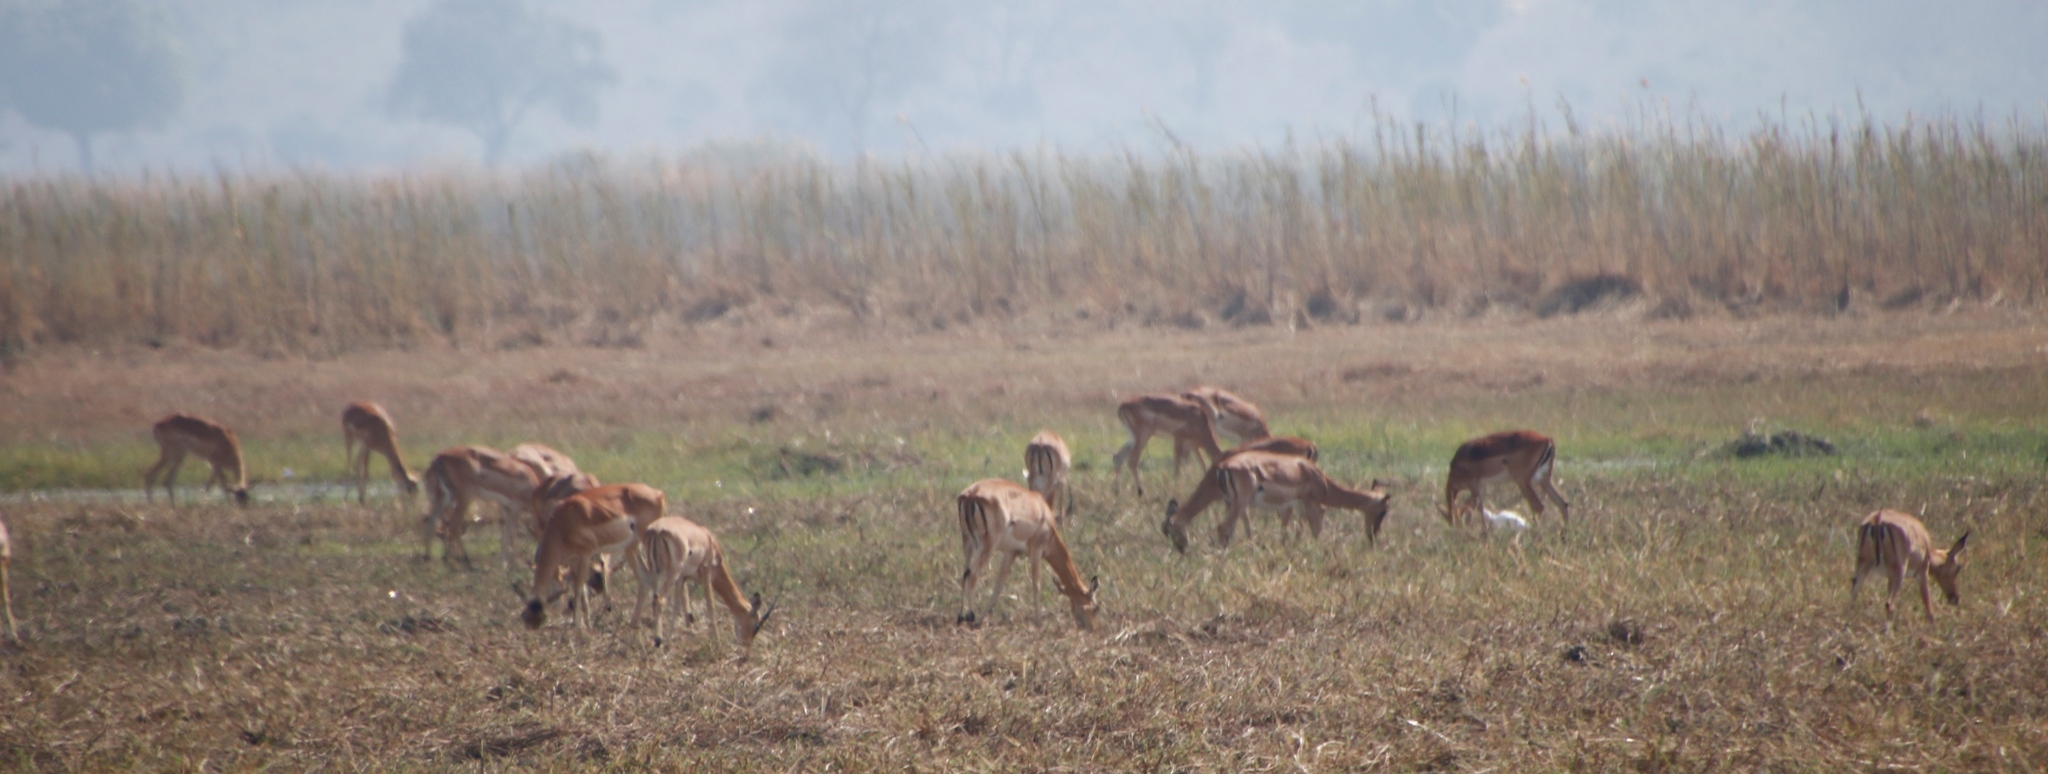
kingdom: Animalia
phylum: Chordata
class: Mammalia
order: Artiodactyla
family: Bovidae
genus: Aepyceros
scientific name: Aepyceros melampus
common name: Impala
